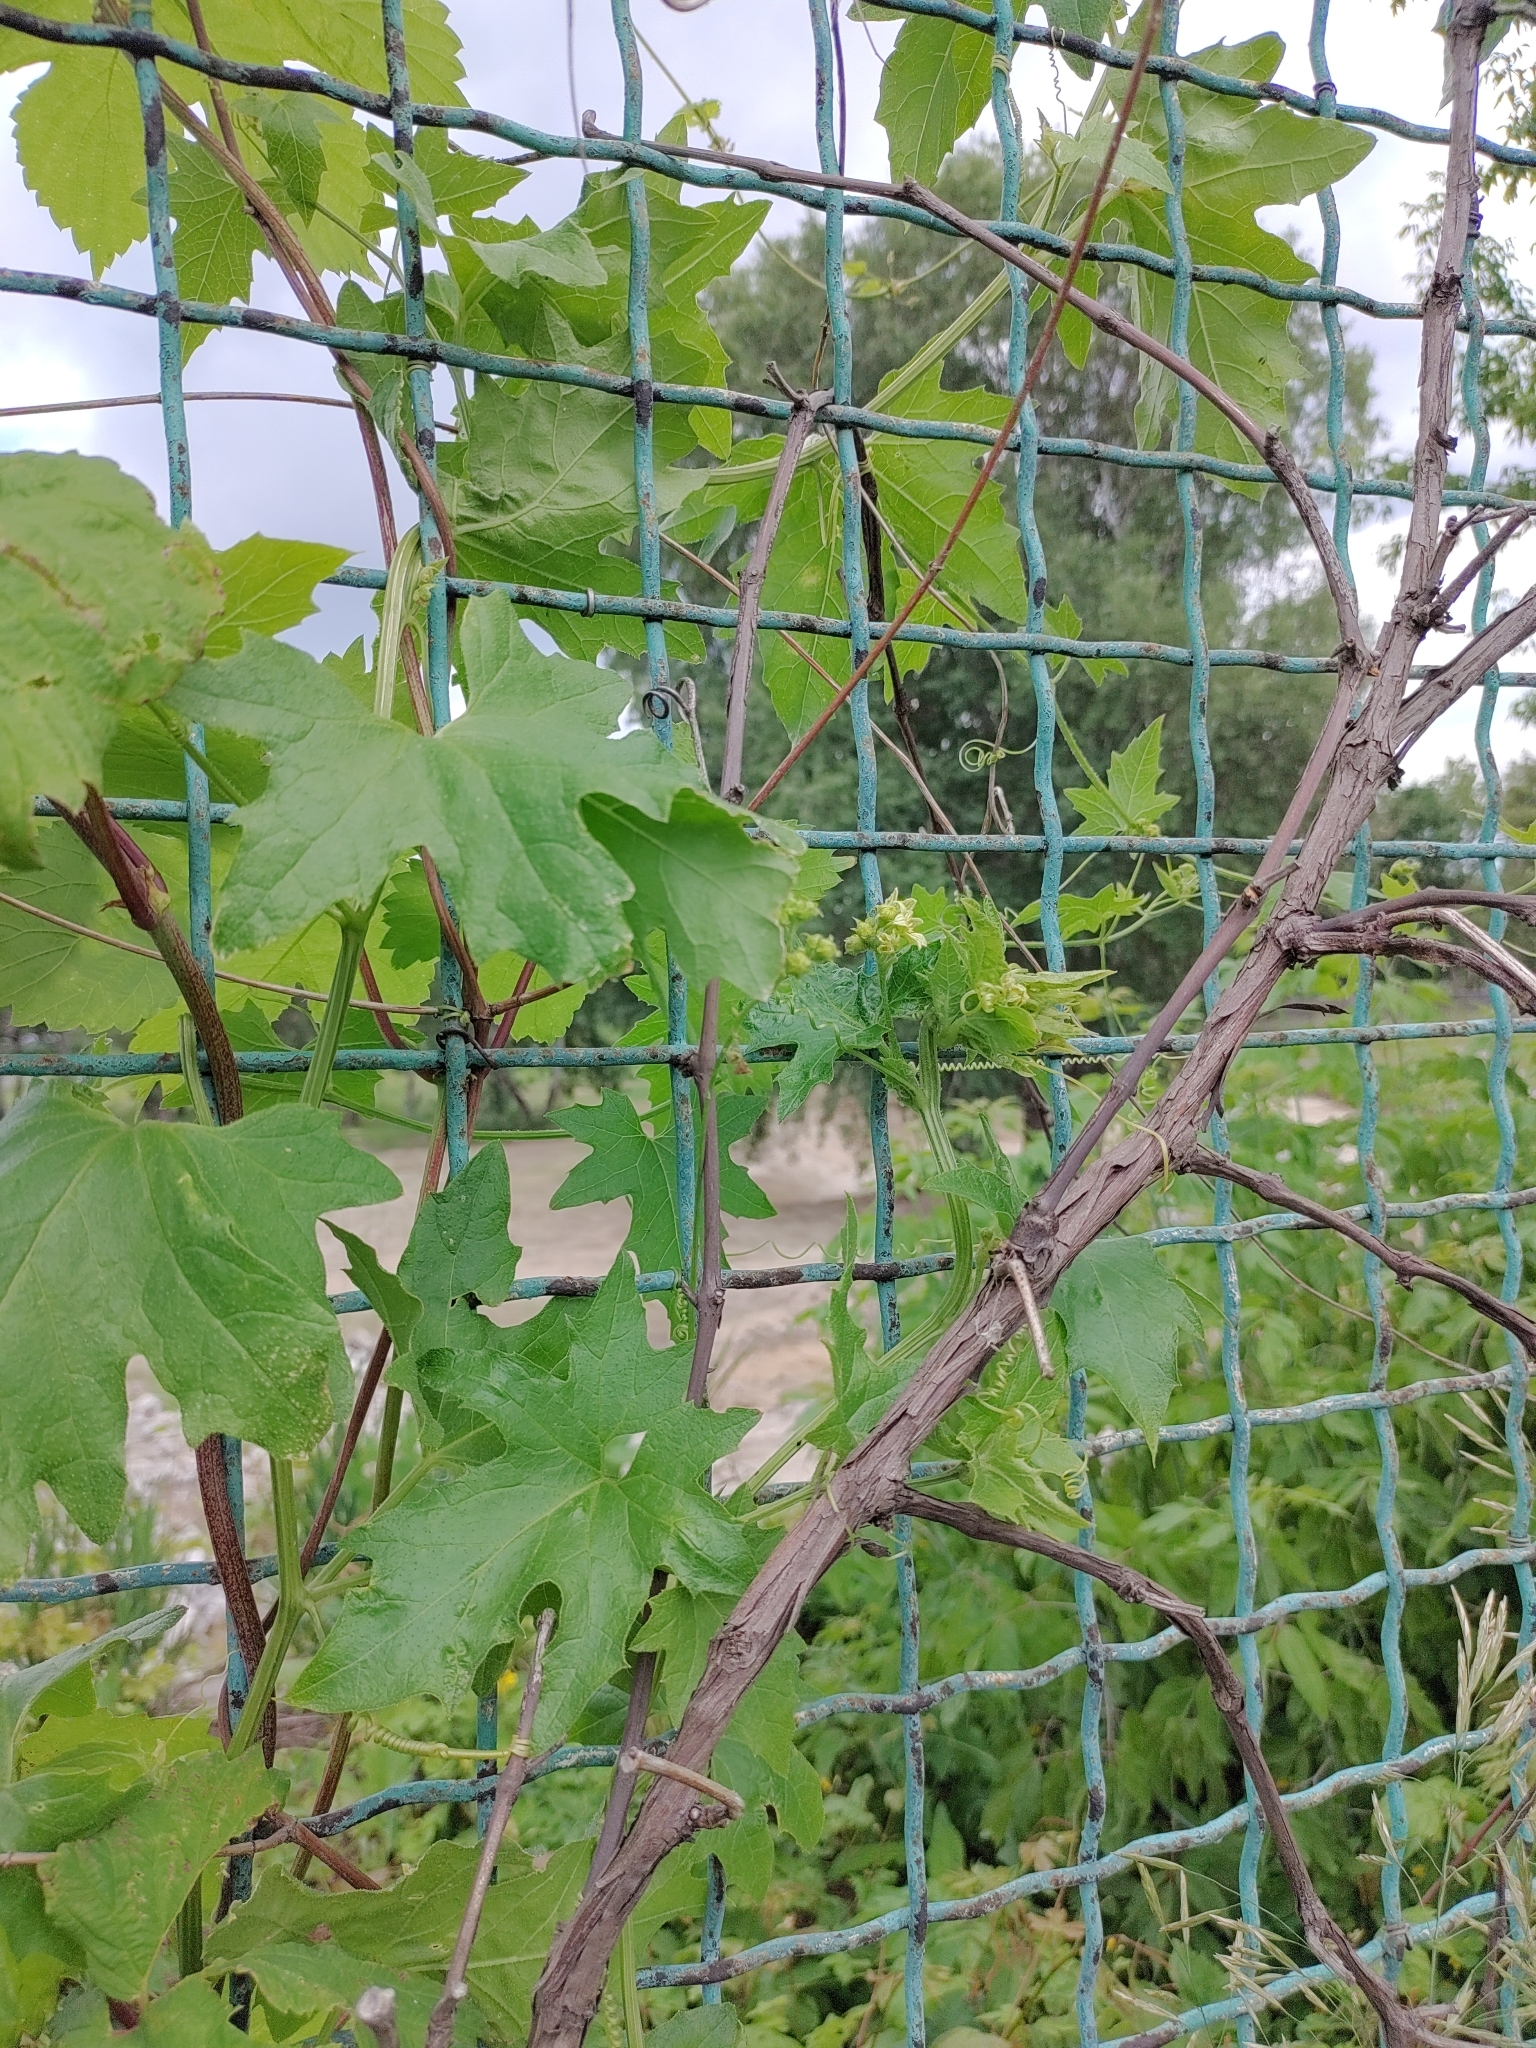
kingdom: Plantae
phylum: Tracheophyta
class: Magnoliopsida
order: Cucurbitales
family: Cucurbitaceae
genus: Bryonia
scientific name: Bryonia alba
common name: White bryony
